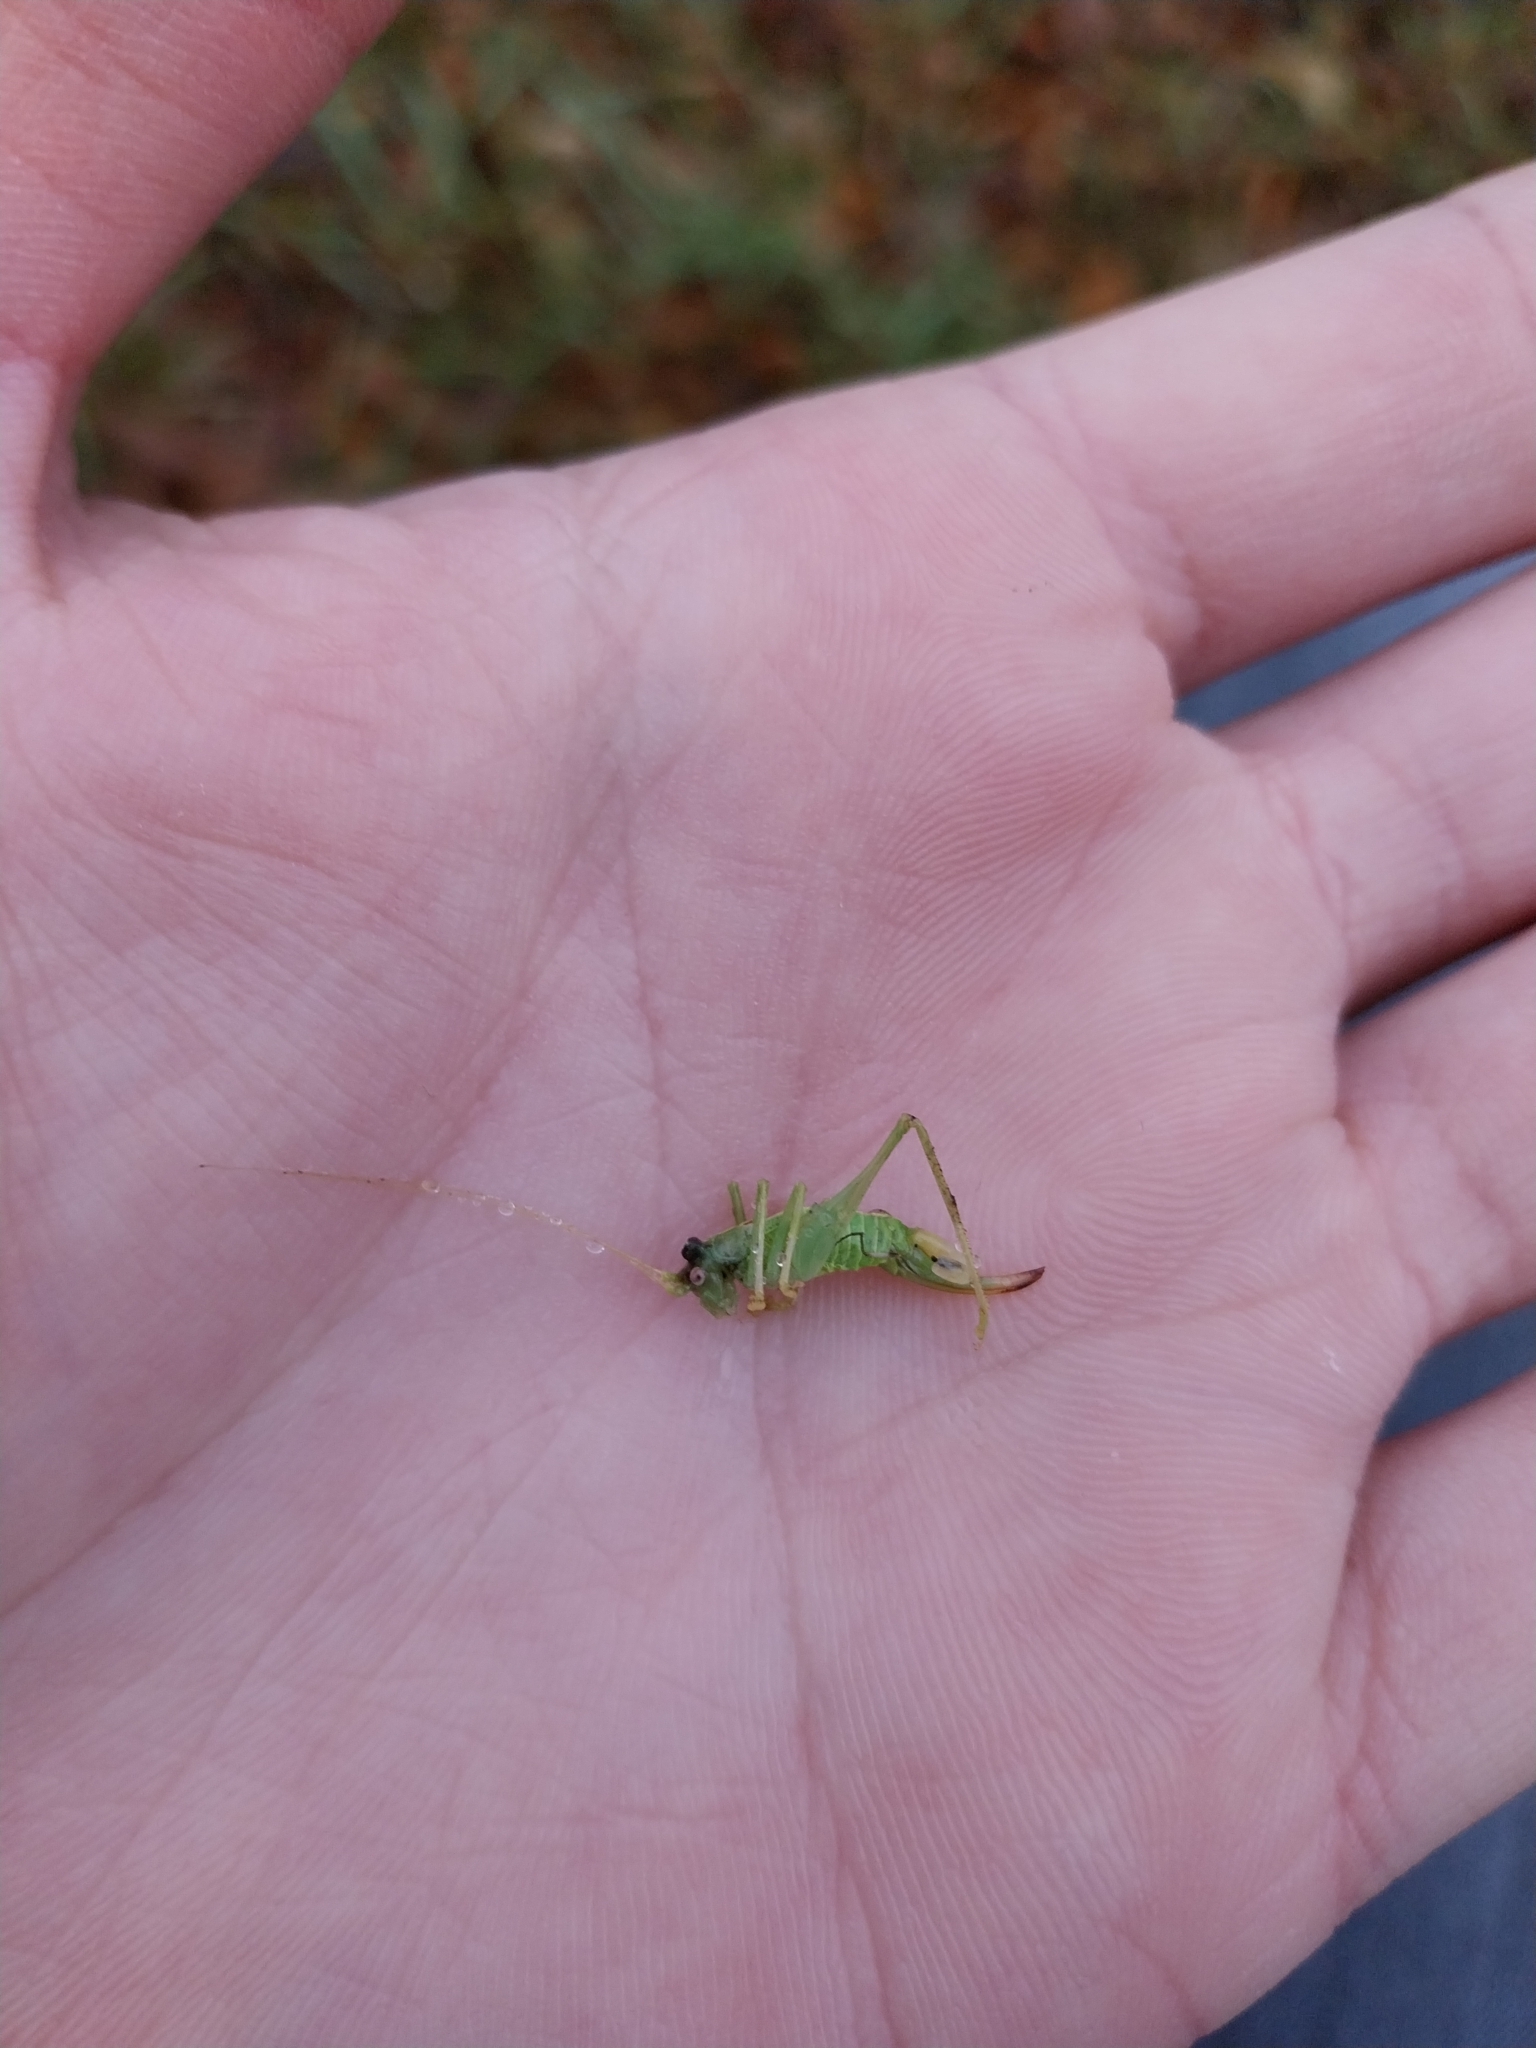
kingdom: Animalia
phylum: Arthropoda
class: Insecta
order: Orthoptera
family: Tettigoniidae
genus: Meconema
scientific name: Meconema meridionale
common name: Southern oak bush-cricket
